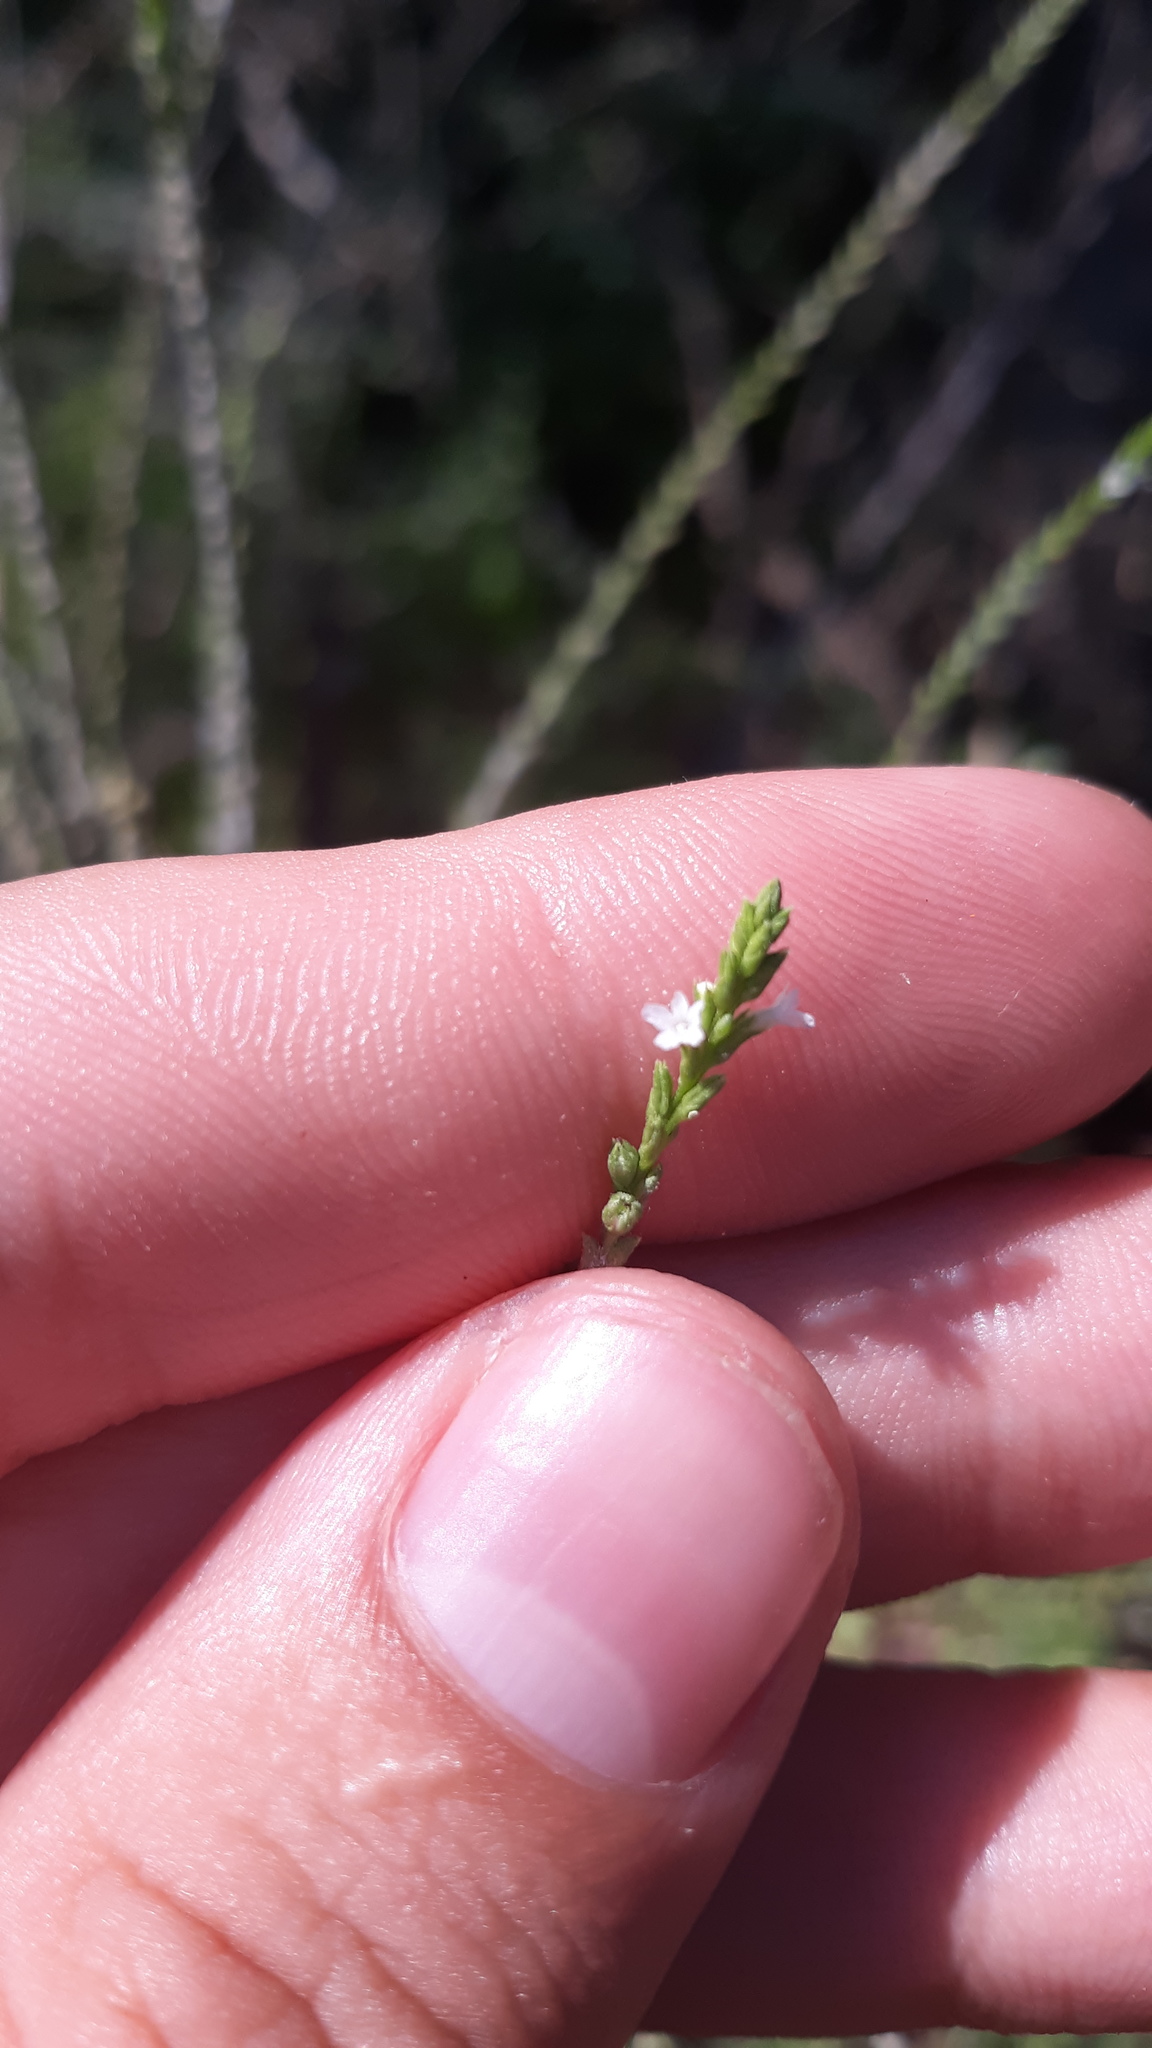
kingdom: Plantae
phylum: Tracheophyta
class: Magnoliopsida
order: Lamiales
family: Verbenaceae
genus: Verbena
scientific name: Verbena urticifolia
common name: Nettle-leaved vervain
